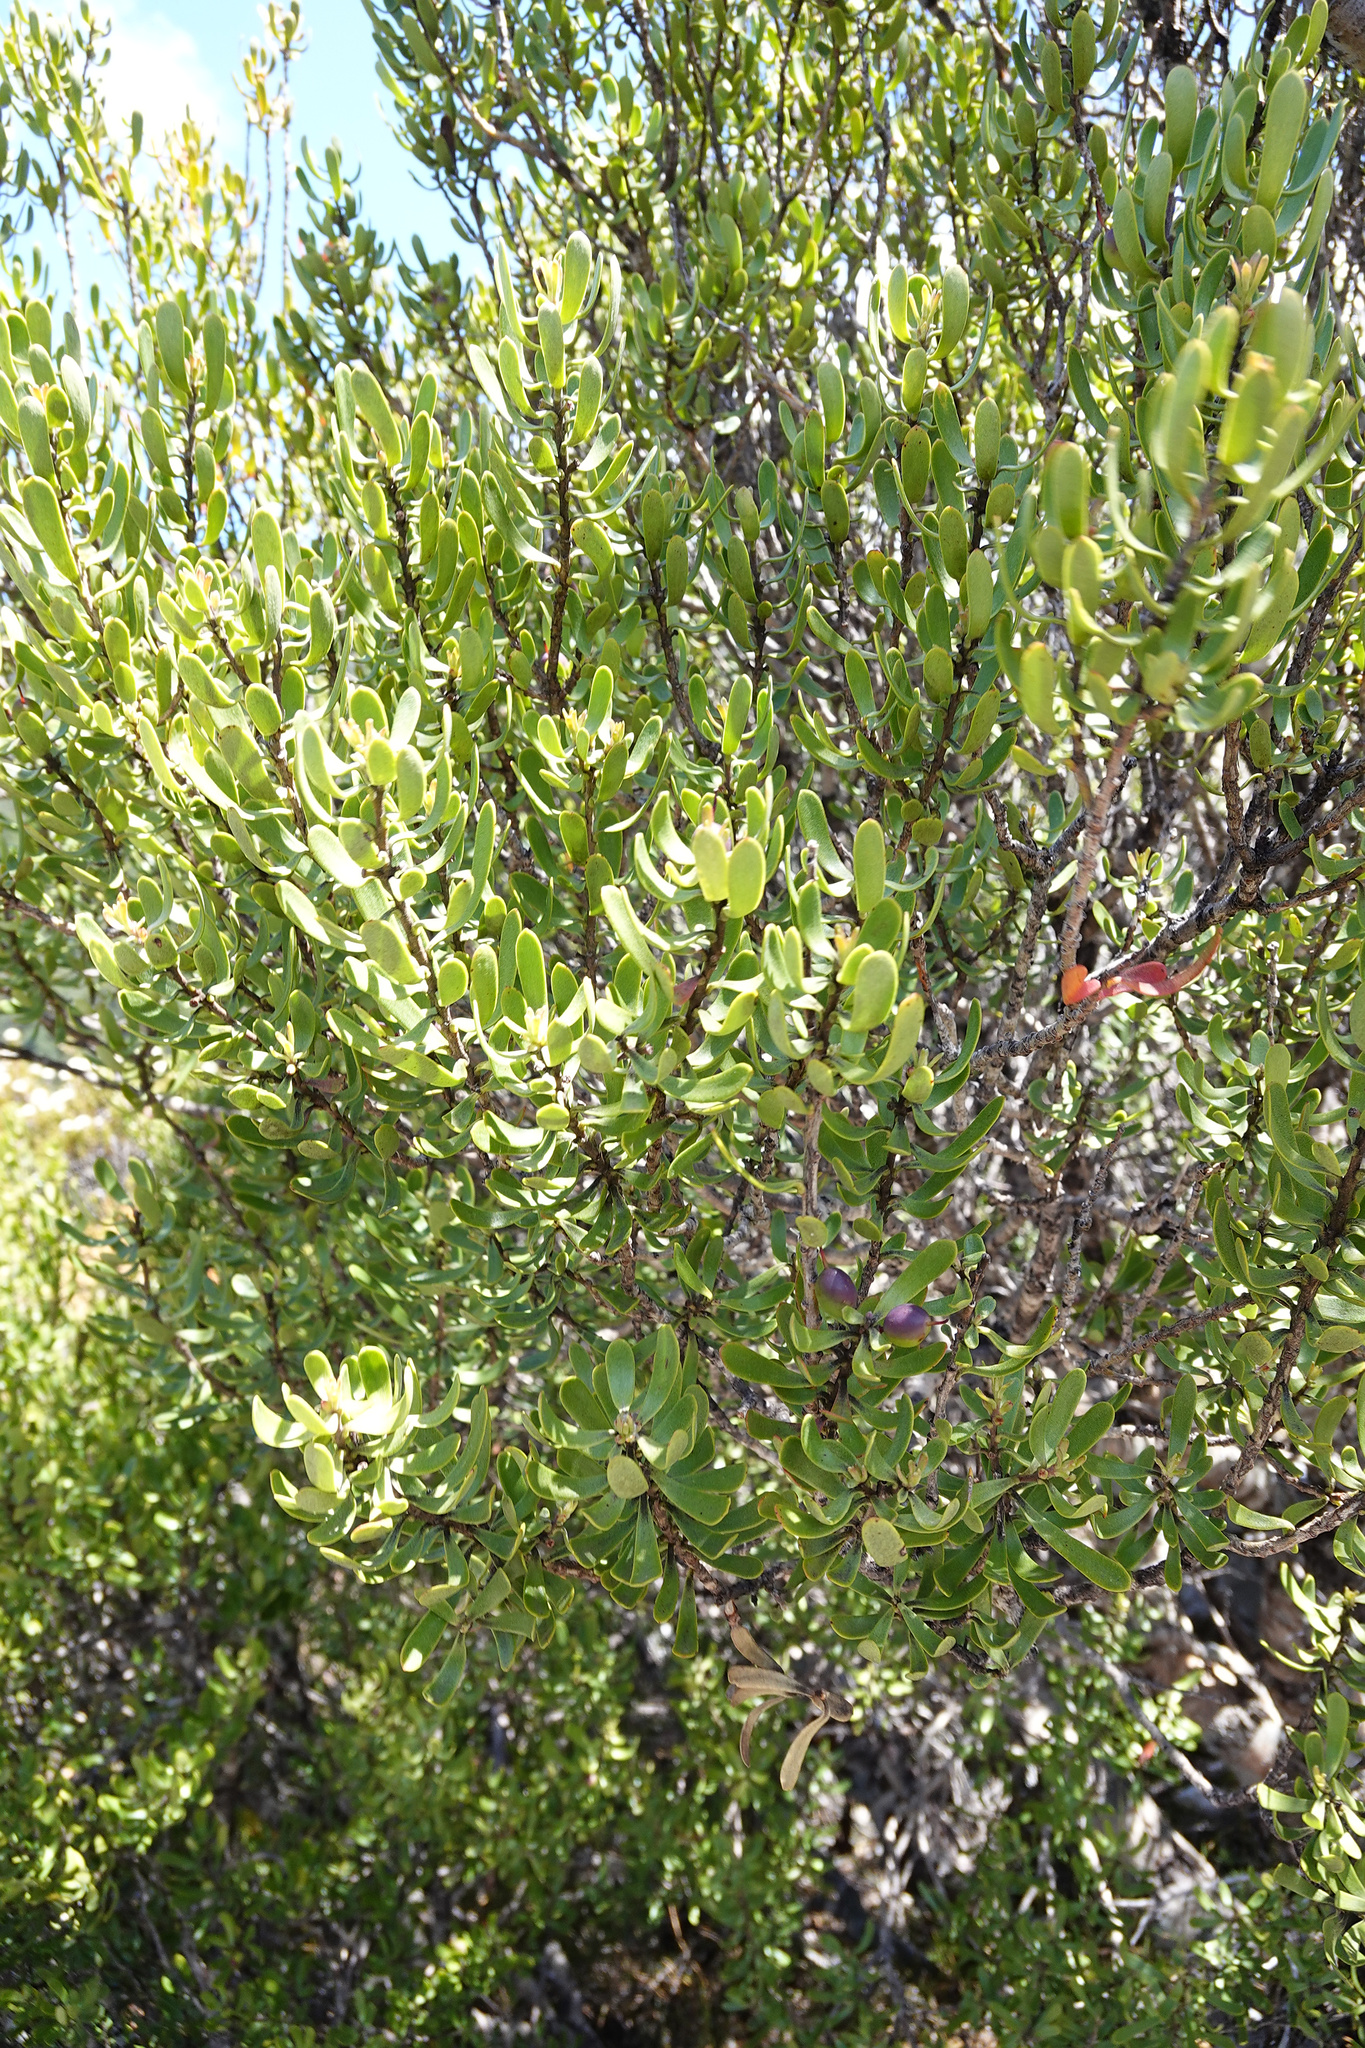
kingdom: Plantae
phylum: Tracheophyta
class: Magnoliopsida
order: Proteales
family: Proteaceae
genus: Persoonia
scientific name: Persoonia gunnii
